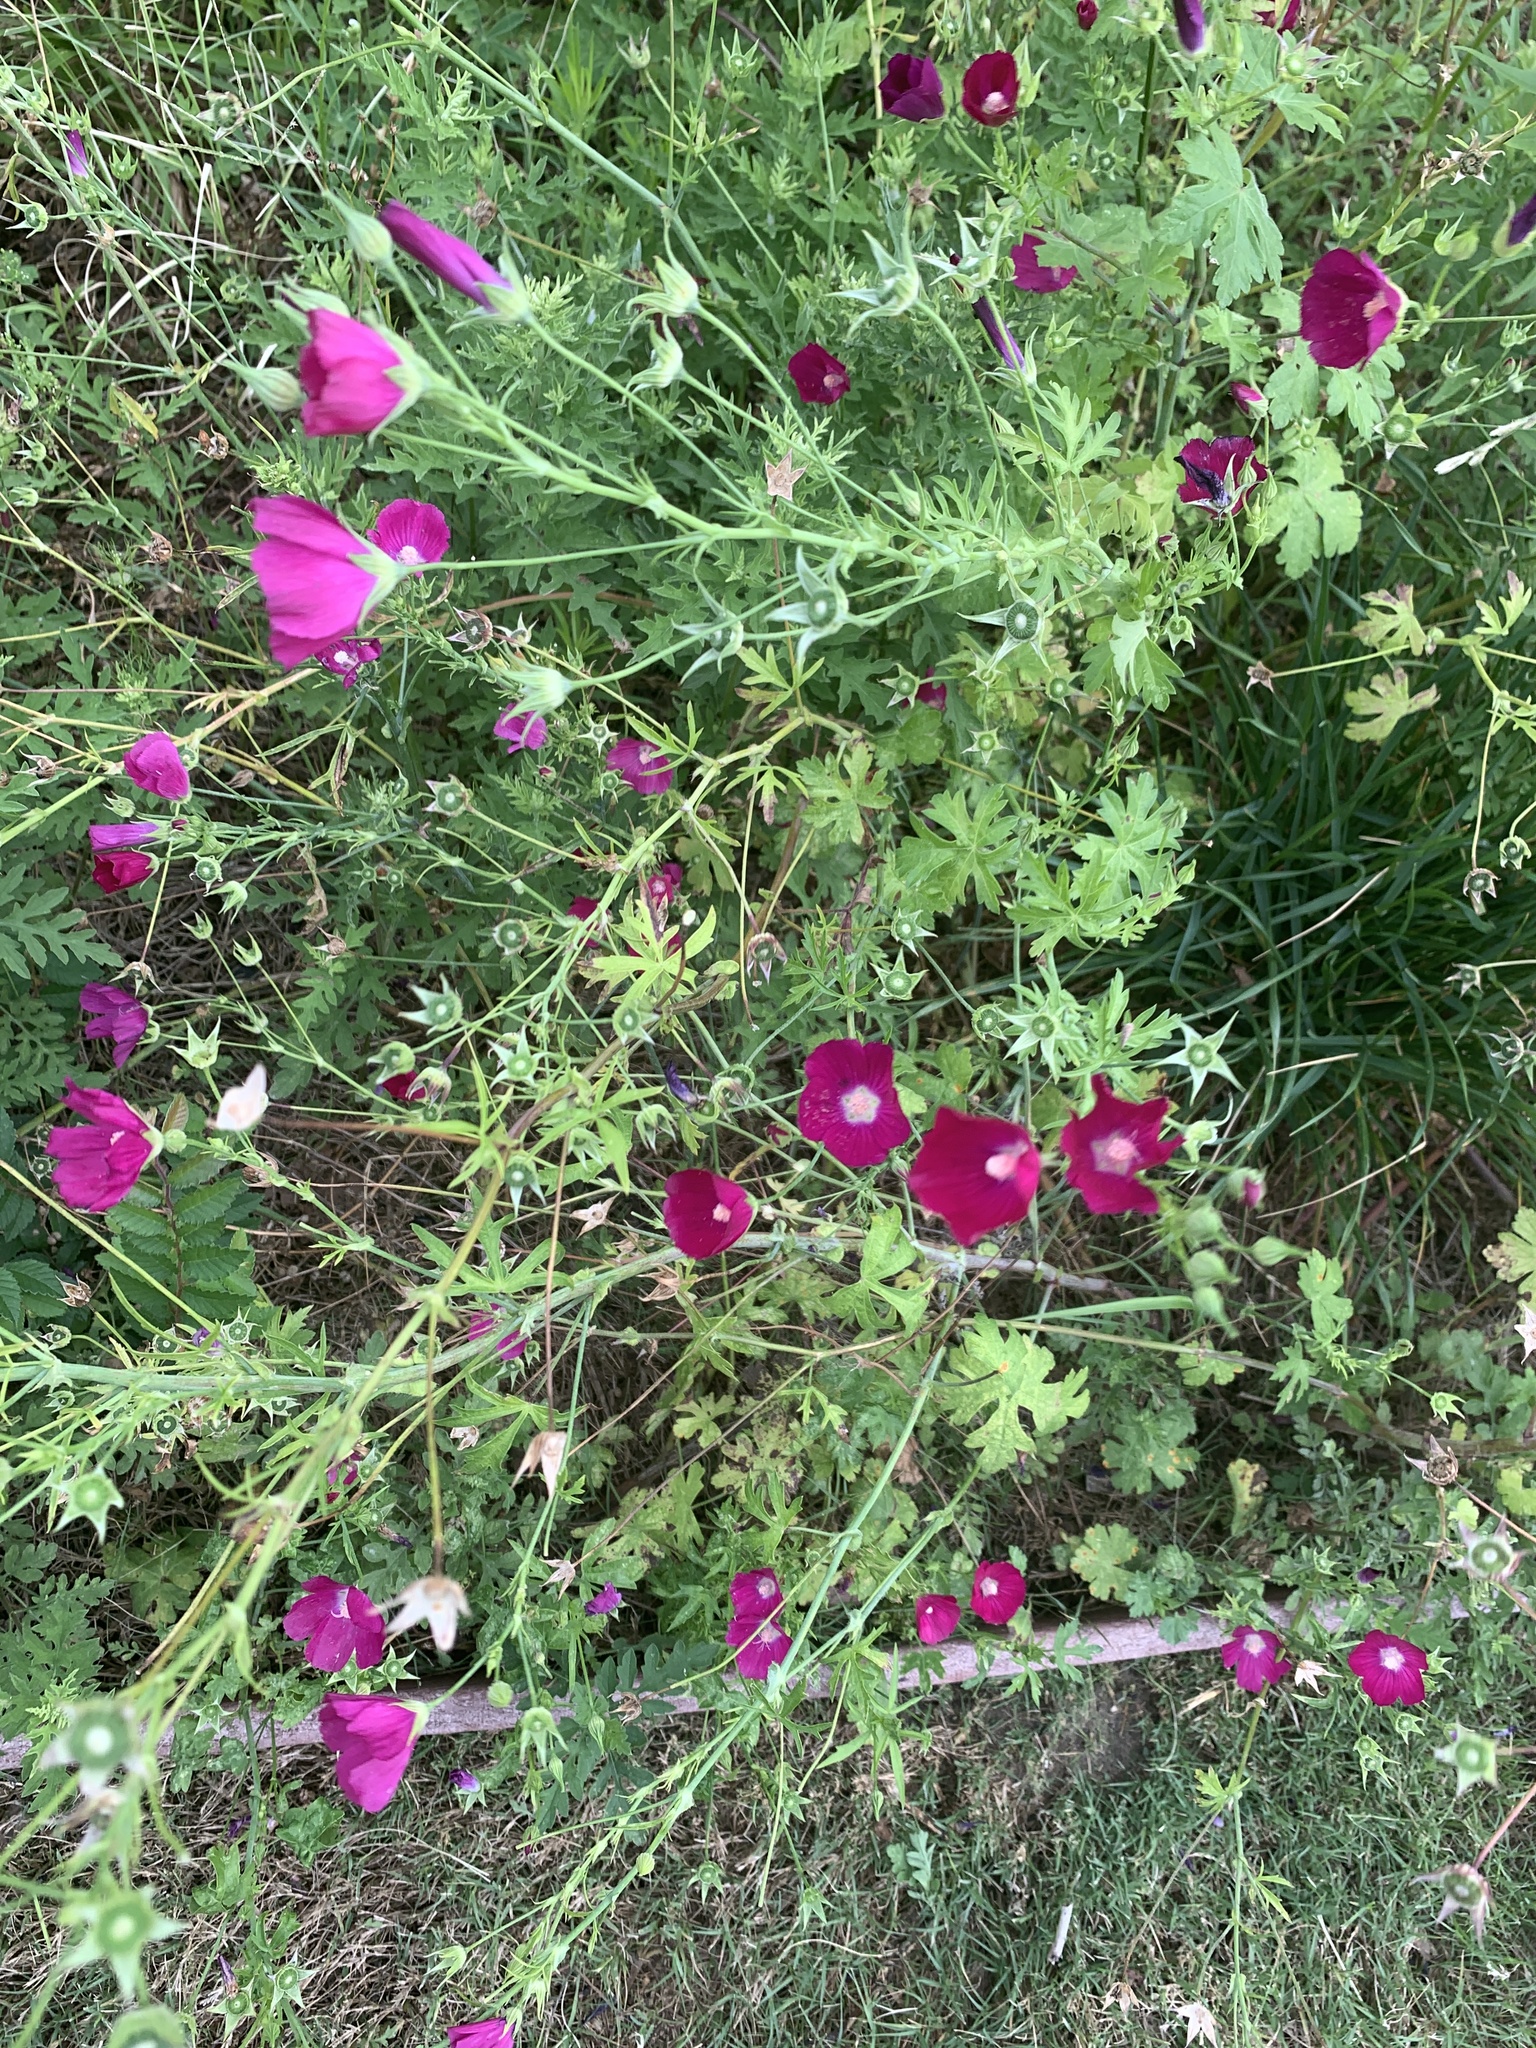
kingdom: Plantae
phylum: Tracheophyta
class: Magnoliopsida
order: Malvales
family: Malvaceae
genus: Callirhoe
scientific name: Callirhoe leiocarpa
